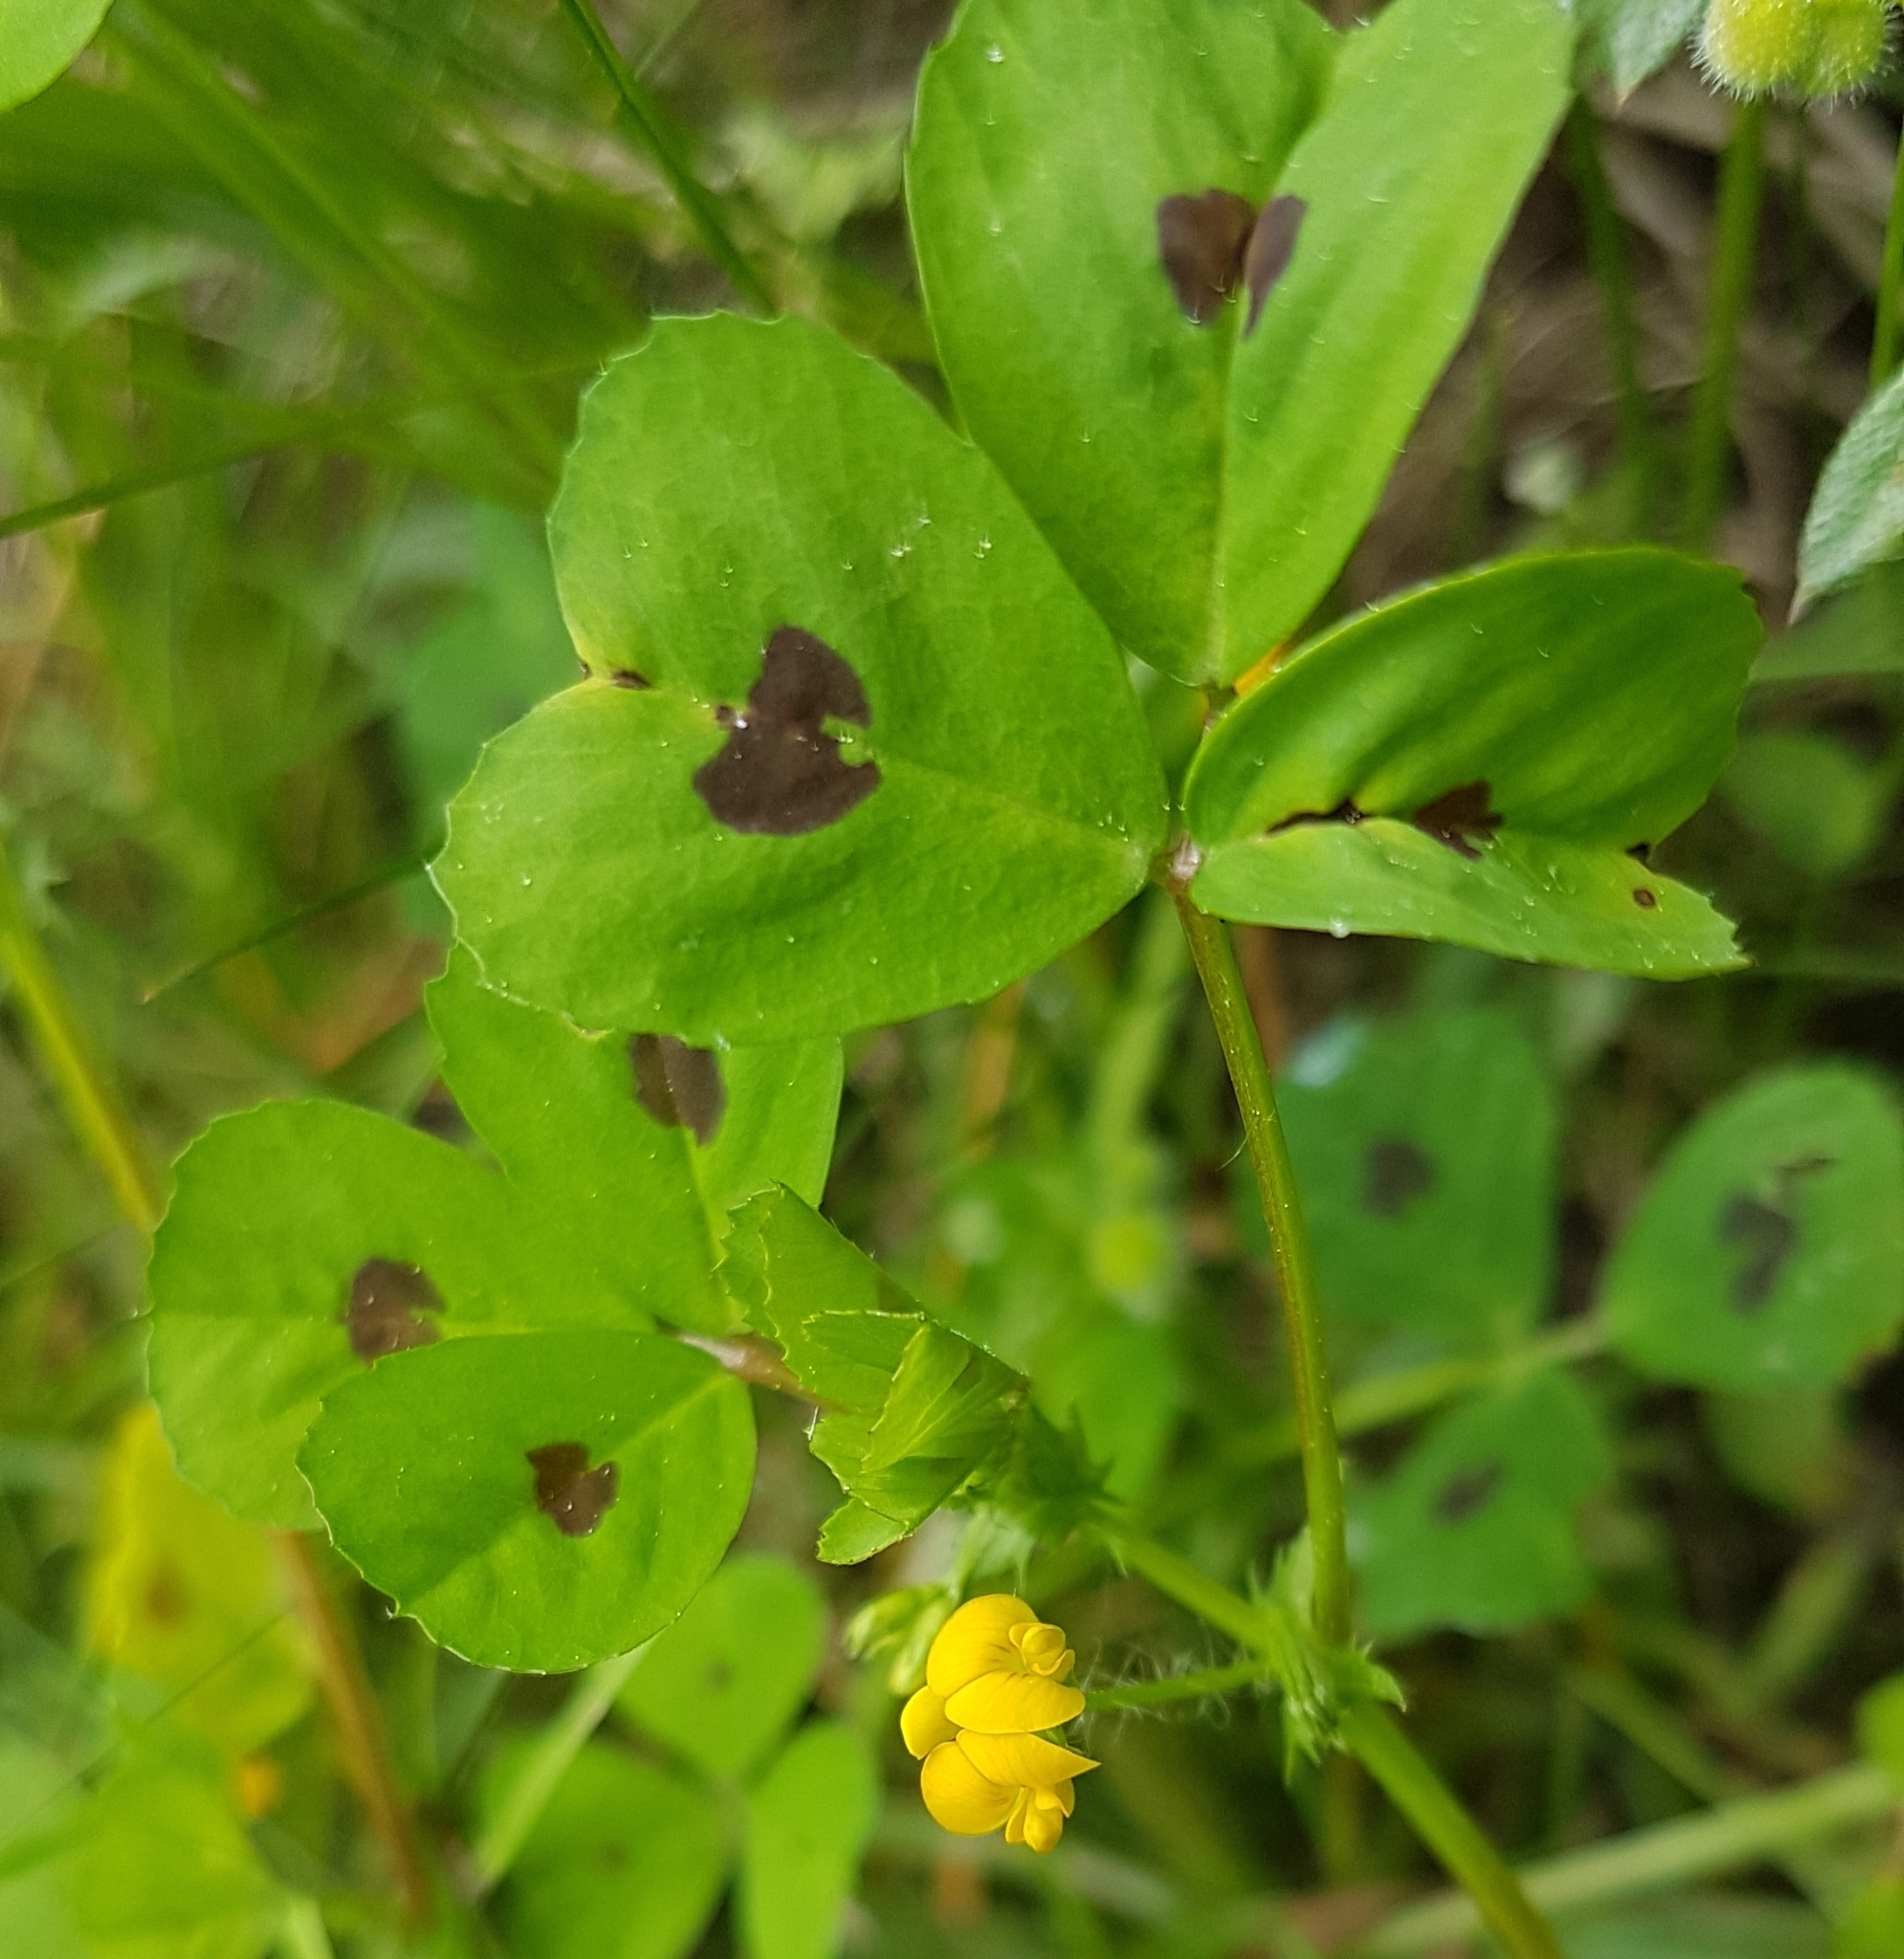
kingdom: Plantae
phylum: Tracheophyta
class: Magnoliopsida
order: Fabales
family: Fabaceae
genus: Medicago
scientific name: Medicago arabica
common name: Spotted medick
